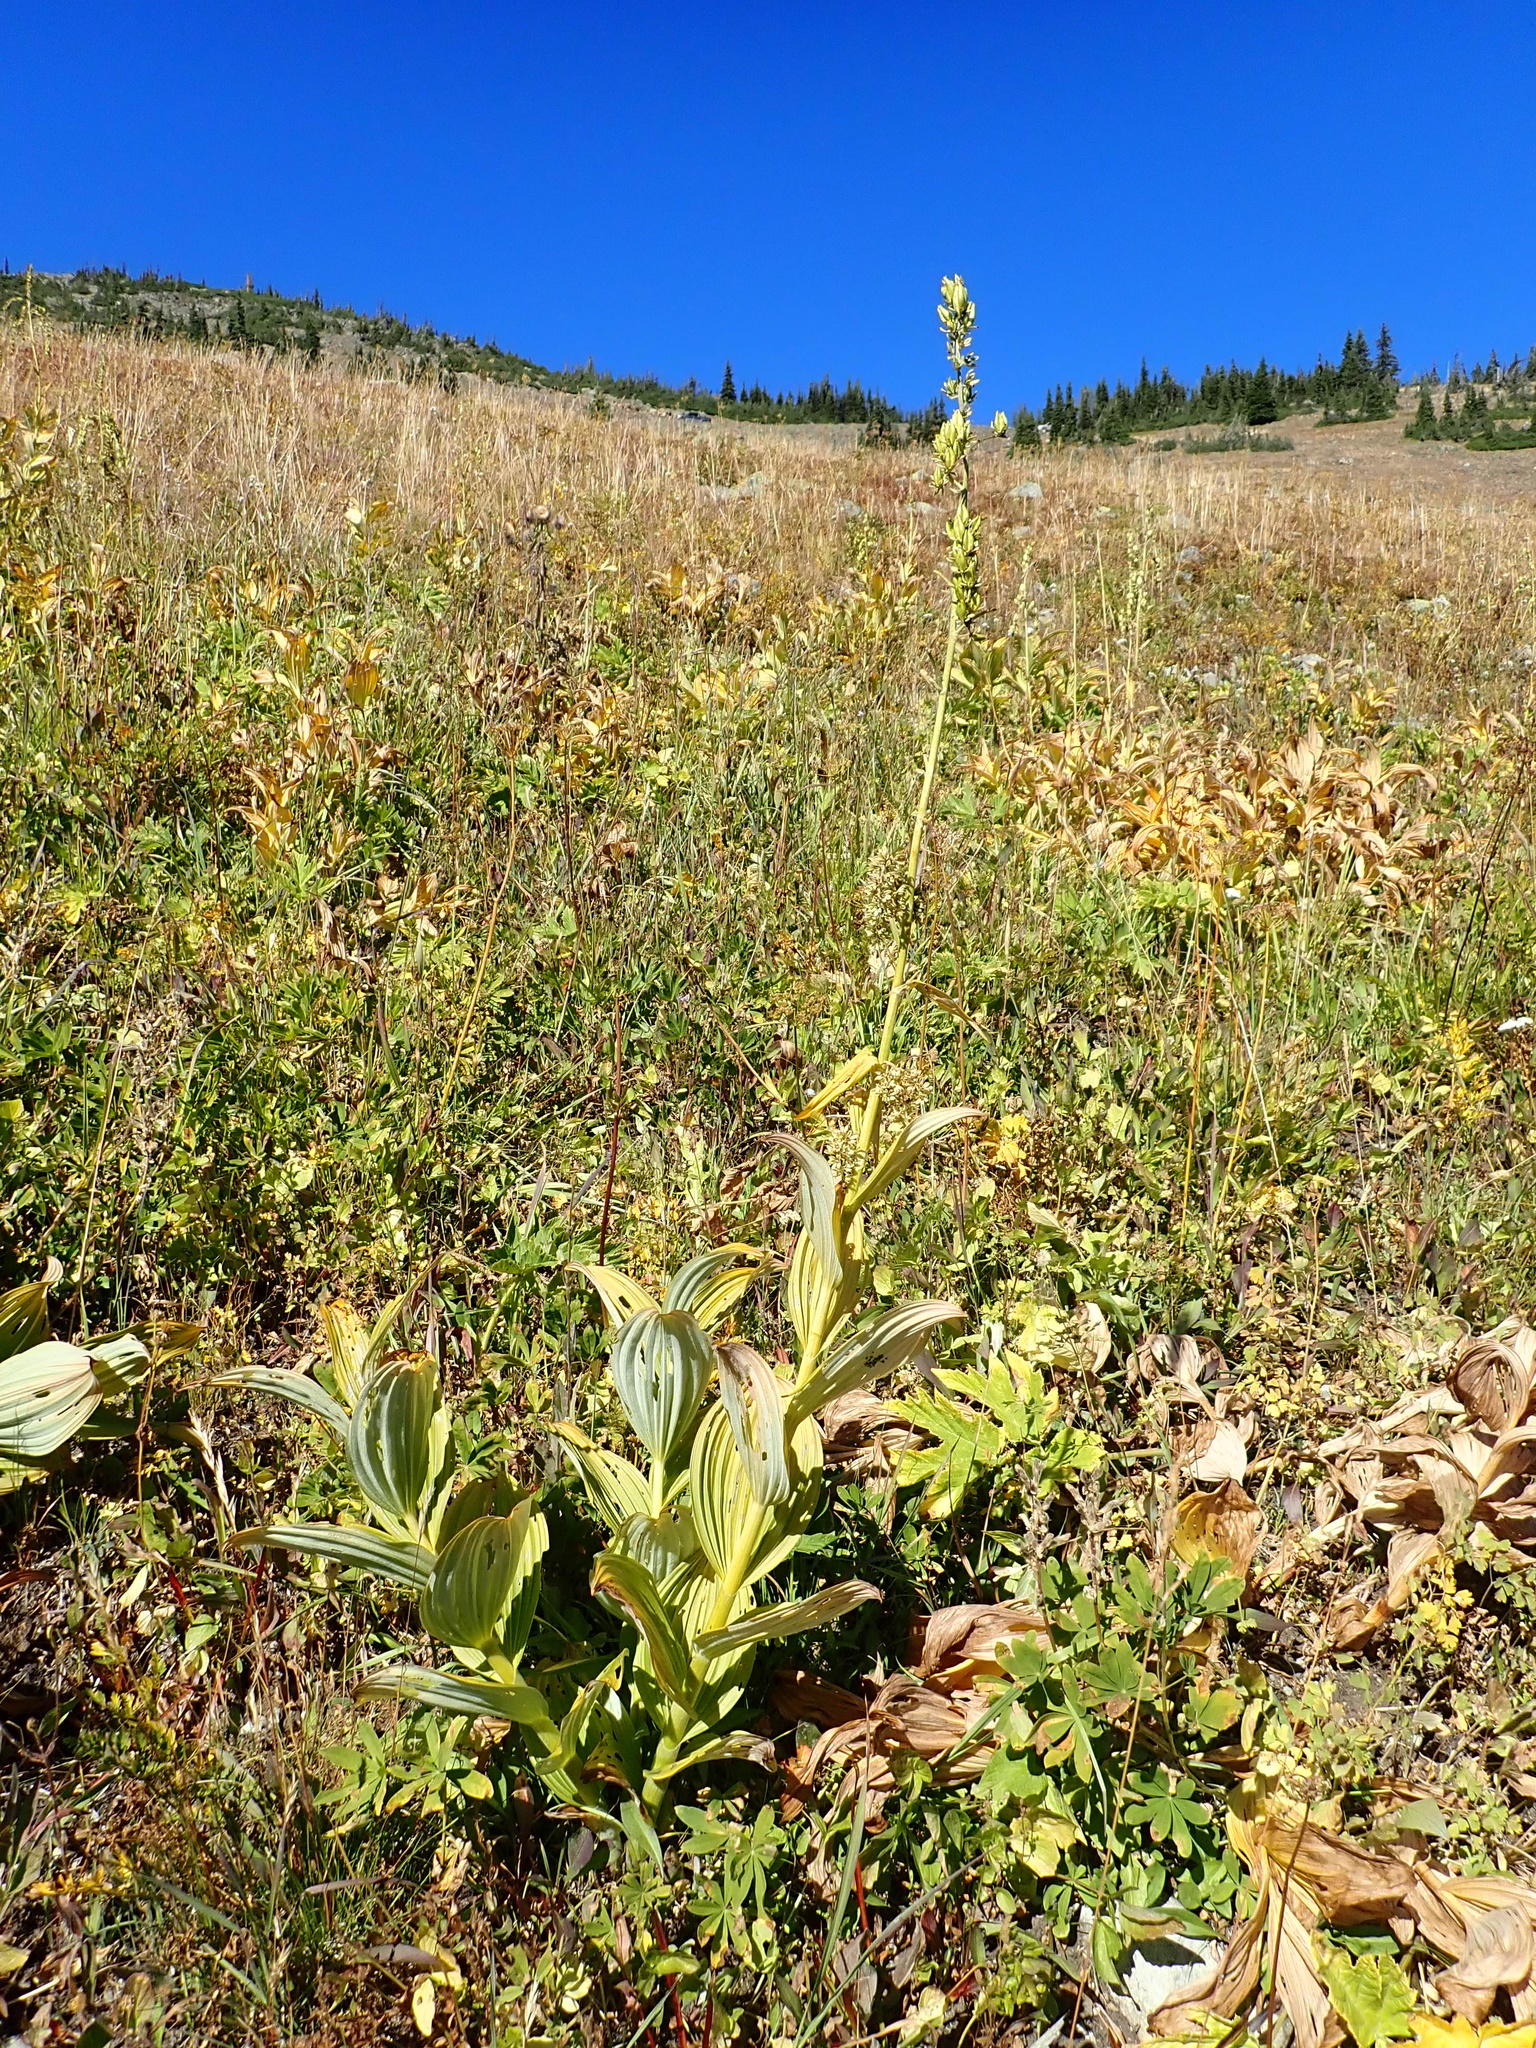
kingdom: Plantae
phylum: Tracheophyta
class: Liliopsida
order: Liliales
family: Melanthiaceae
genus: Veratrum
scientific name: Veratrum viride
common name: American false hellebore
